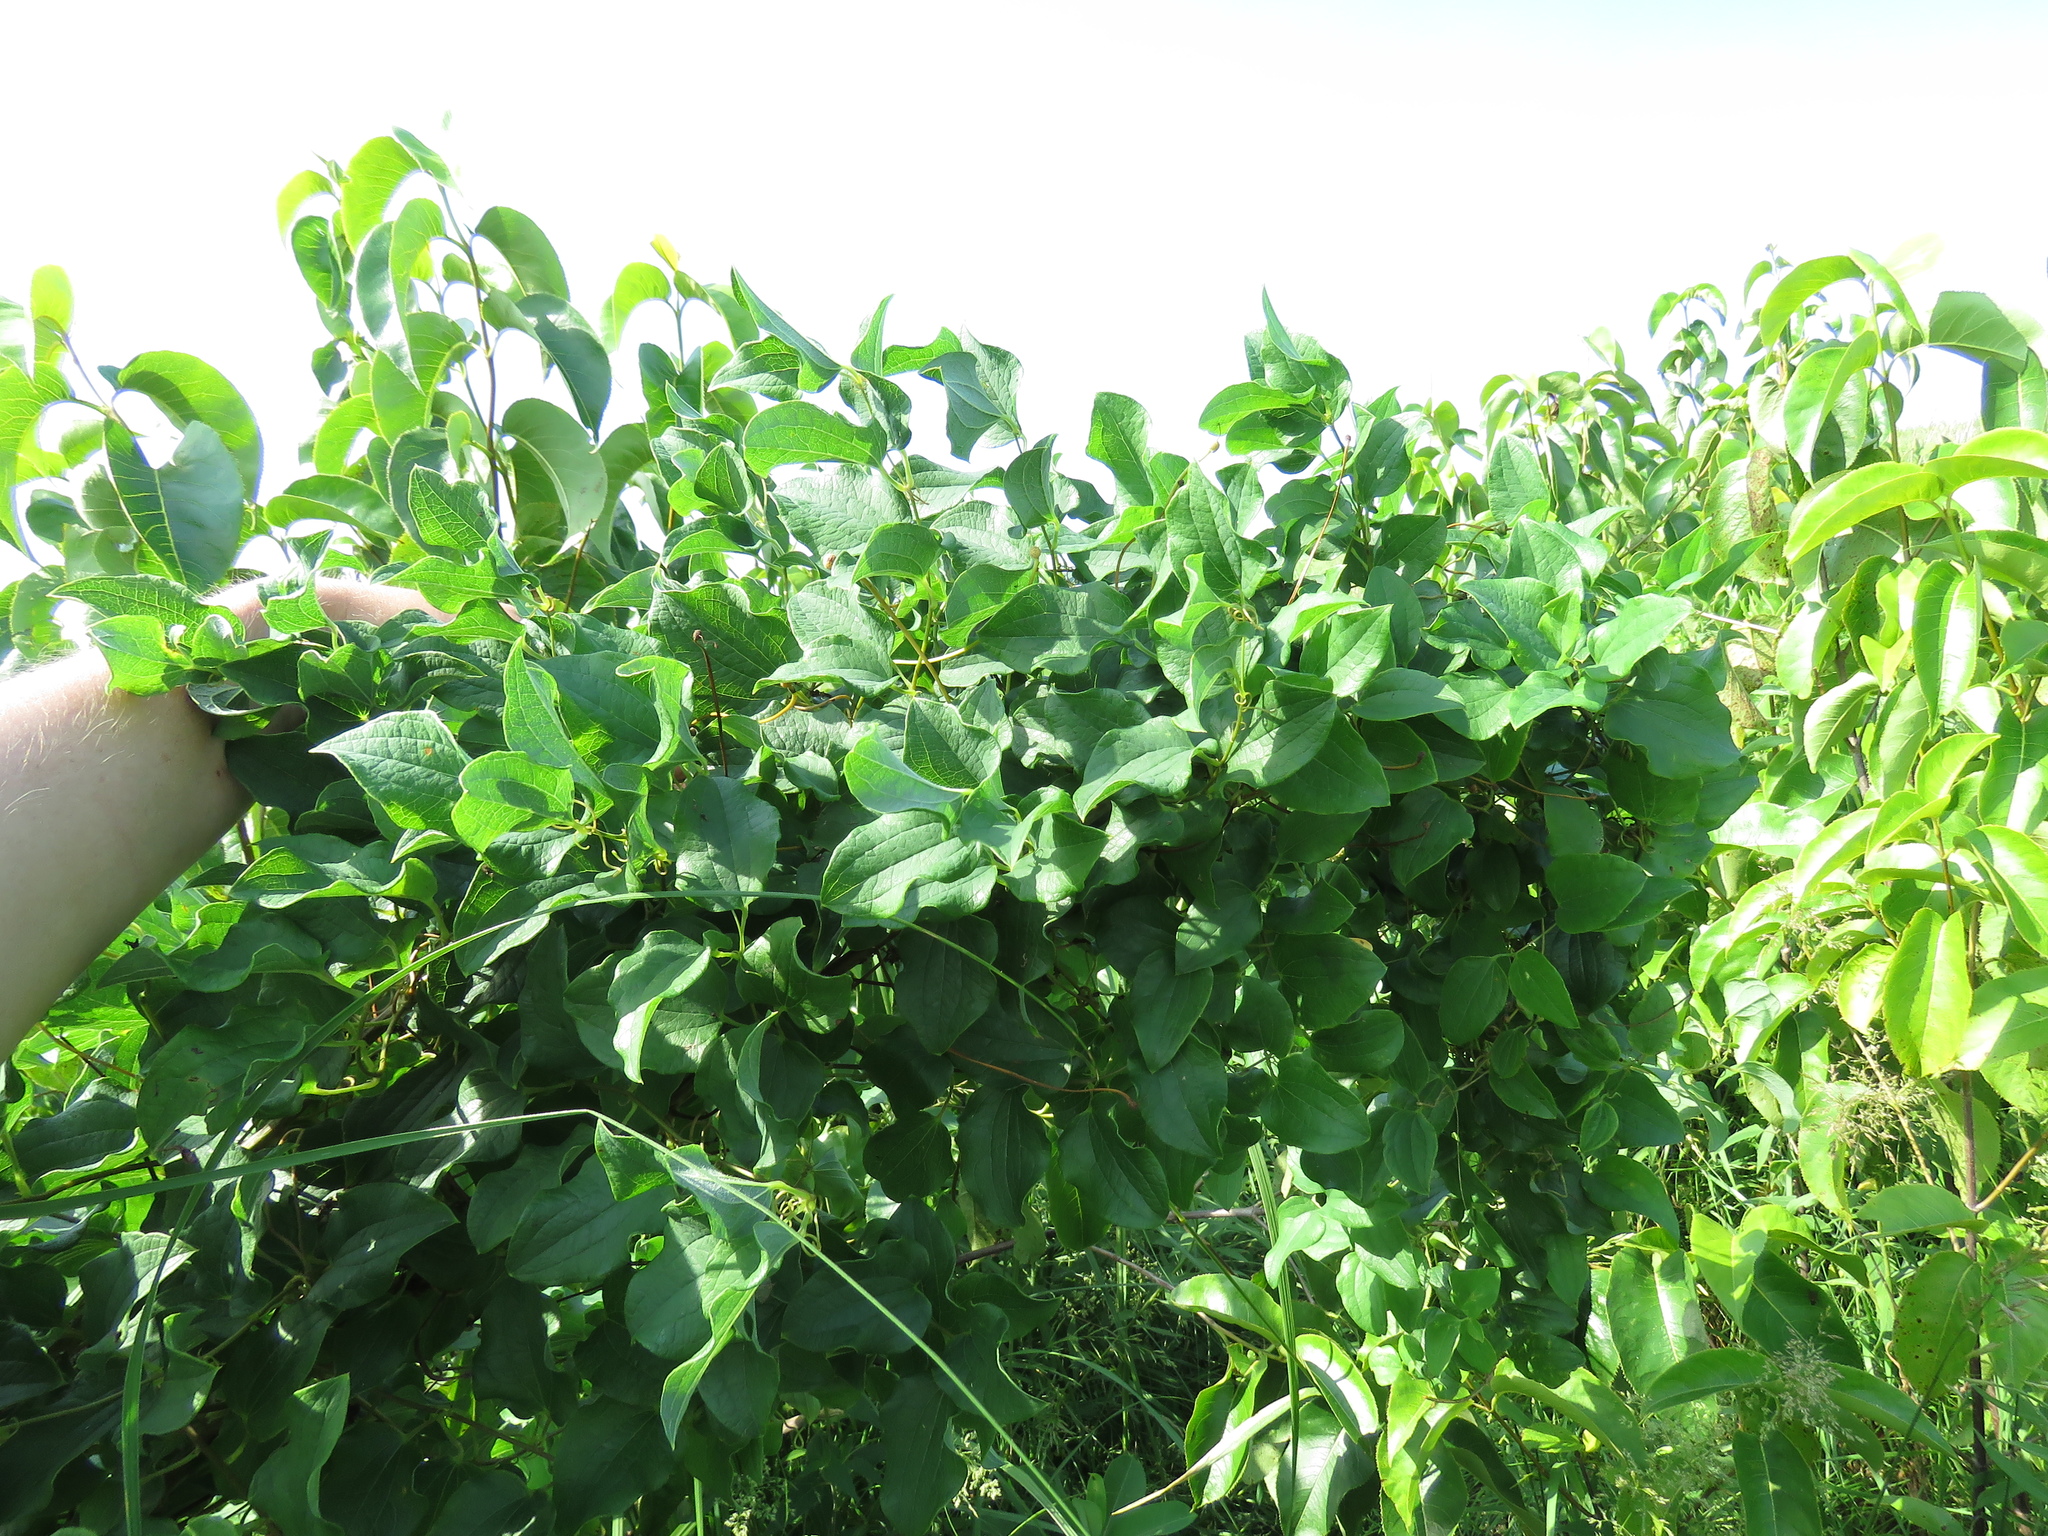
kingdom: Plantae
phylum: Tracheophyta
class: Liliopsida
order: Liliales
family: Smilacaceae
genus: Smilax
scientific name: Smilax lasioneura
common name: Blue ridge carrionflower
